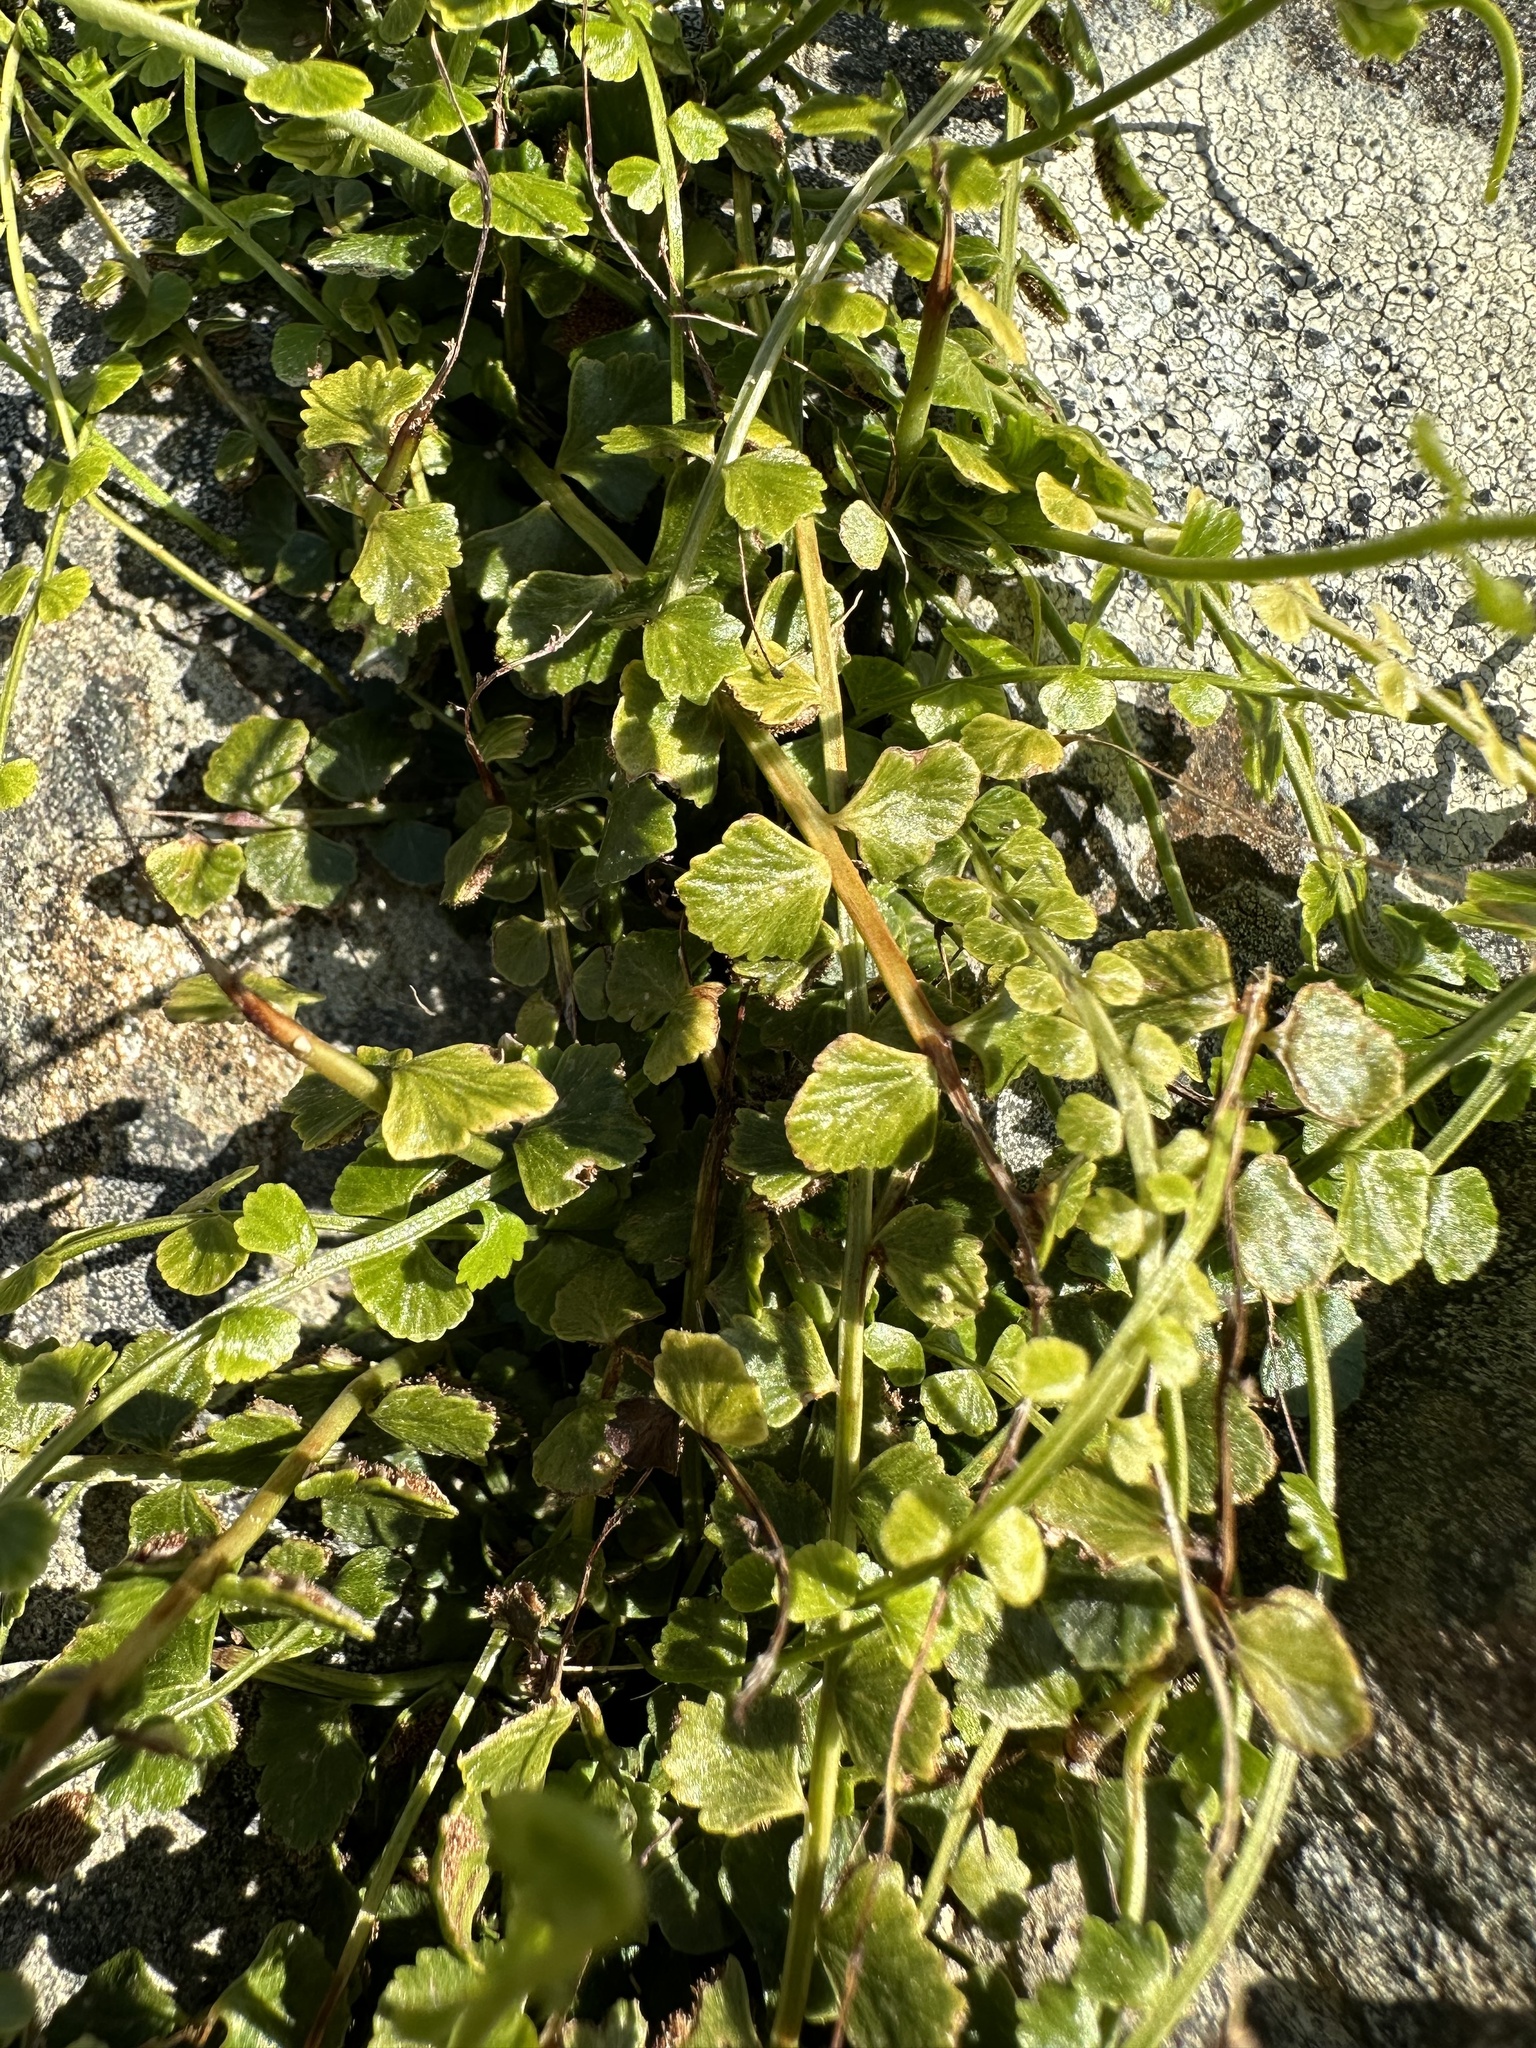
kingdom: Plantae
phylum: Tracheophyta
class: Polypodiopsida
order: Polypodiales
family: Aspleniaceae
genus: Asplenium
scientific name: Asplenium flabellifolium
